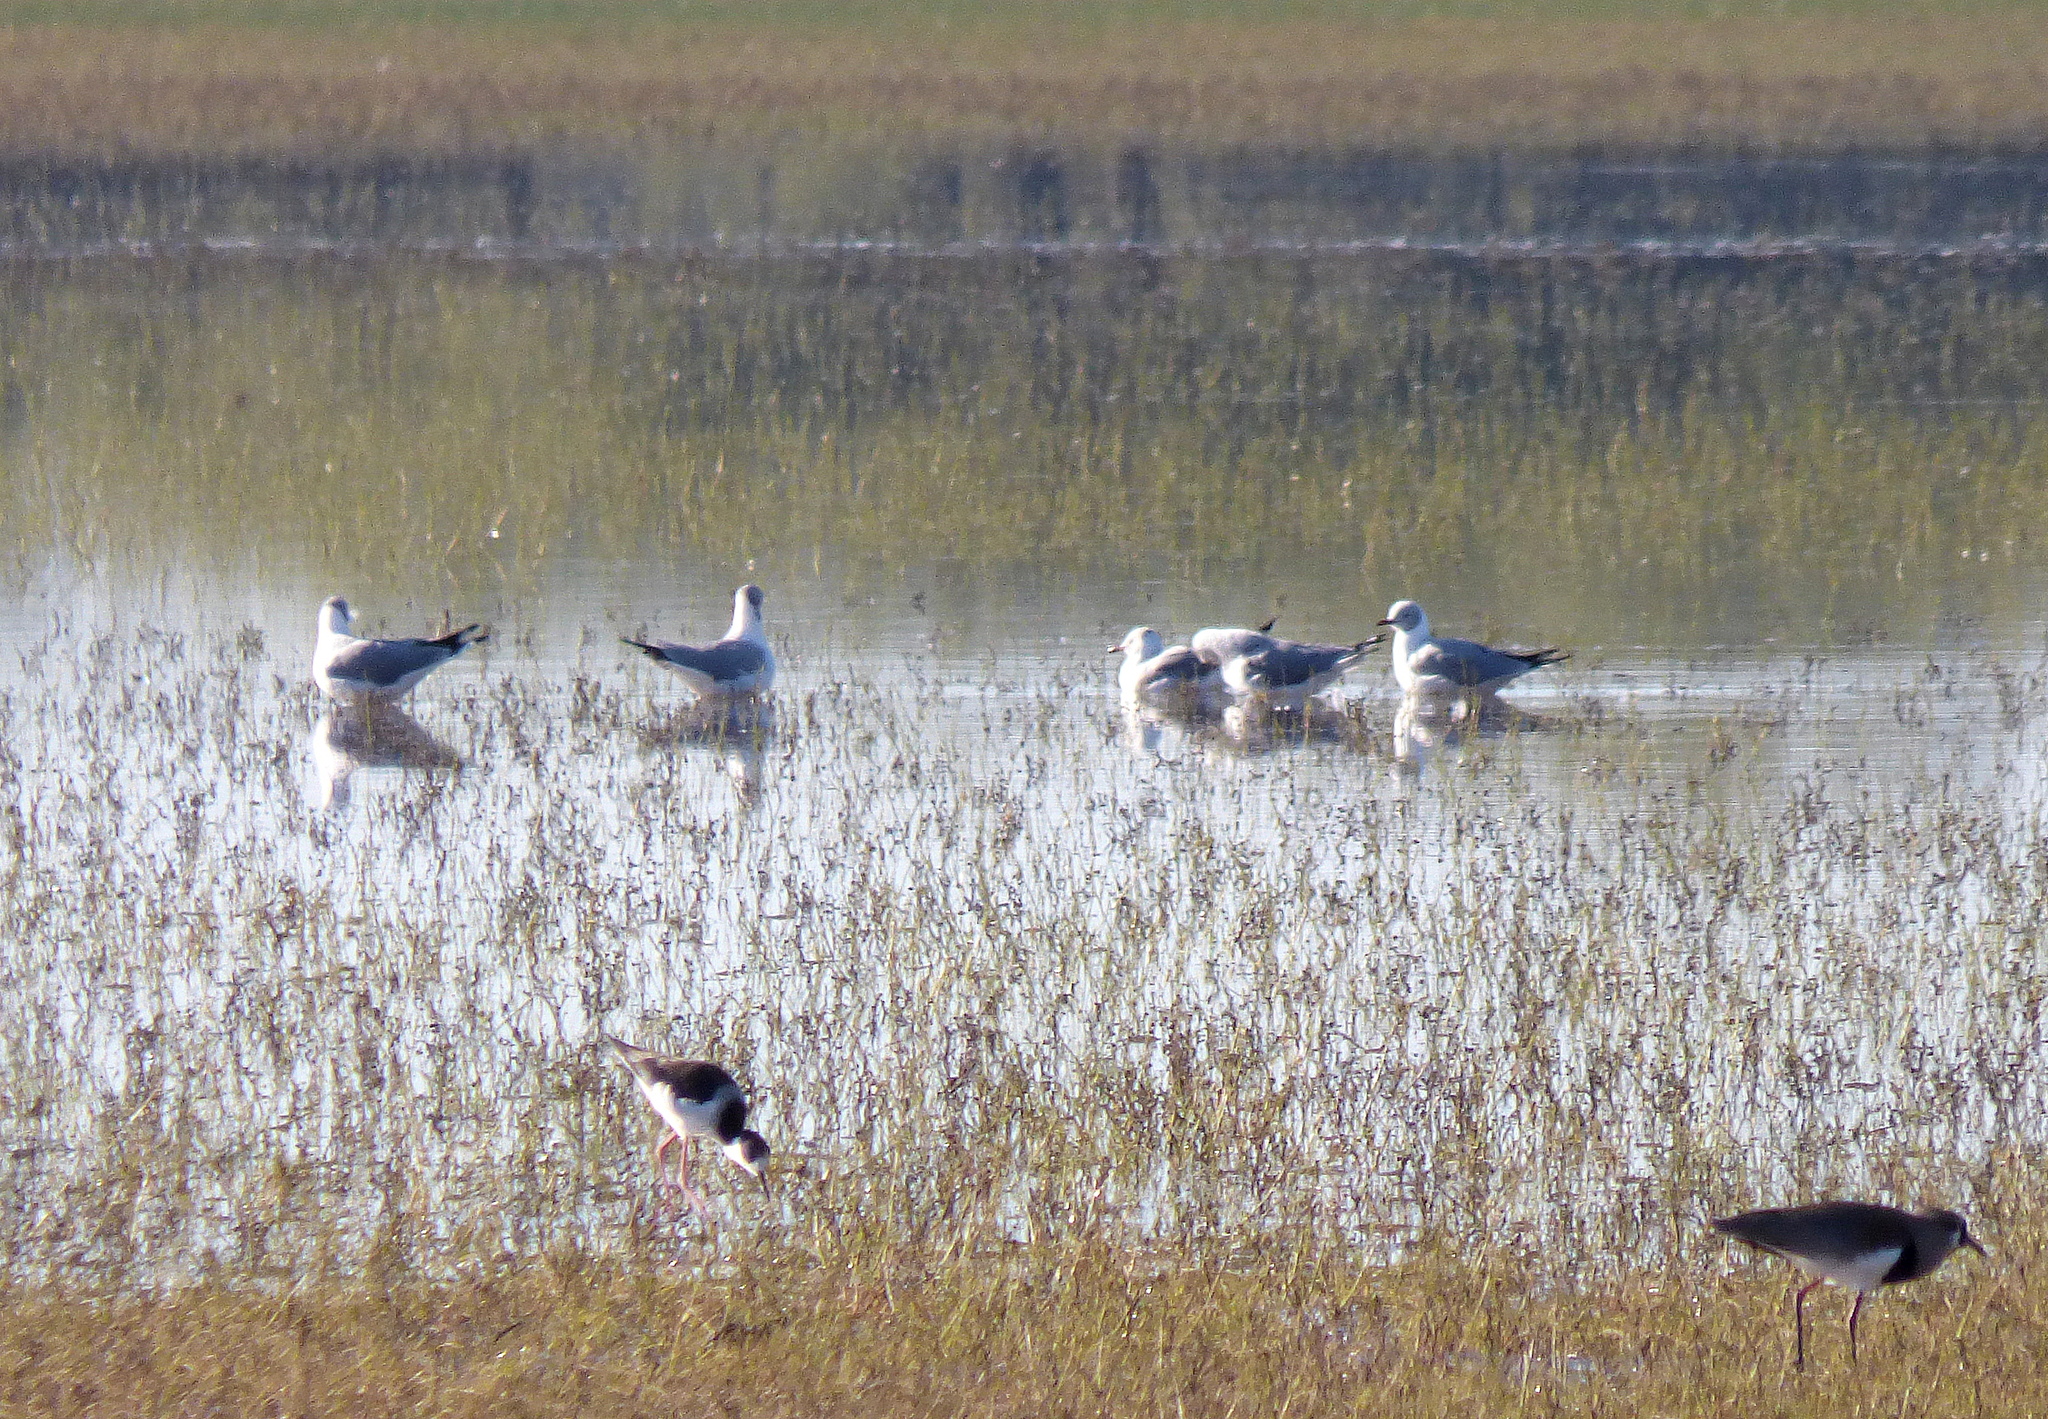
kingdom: Animalia
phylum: Chordata
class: Aves
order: Charadriiformes
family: Laridae
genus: Chroicocephalus
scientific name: Chroicocephalus cirrocephalus
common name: Grey-headed gull
